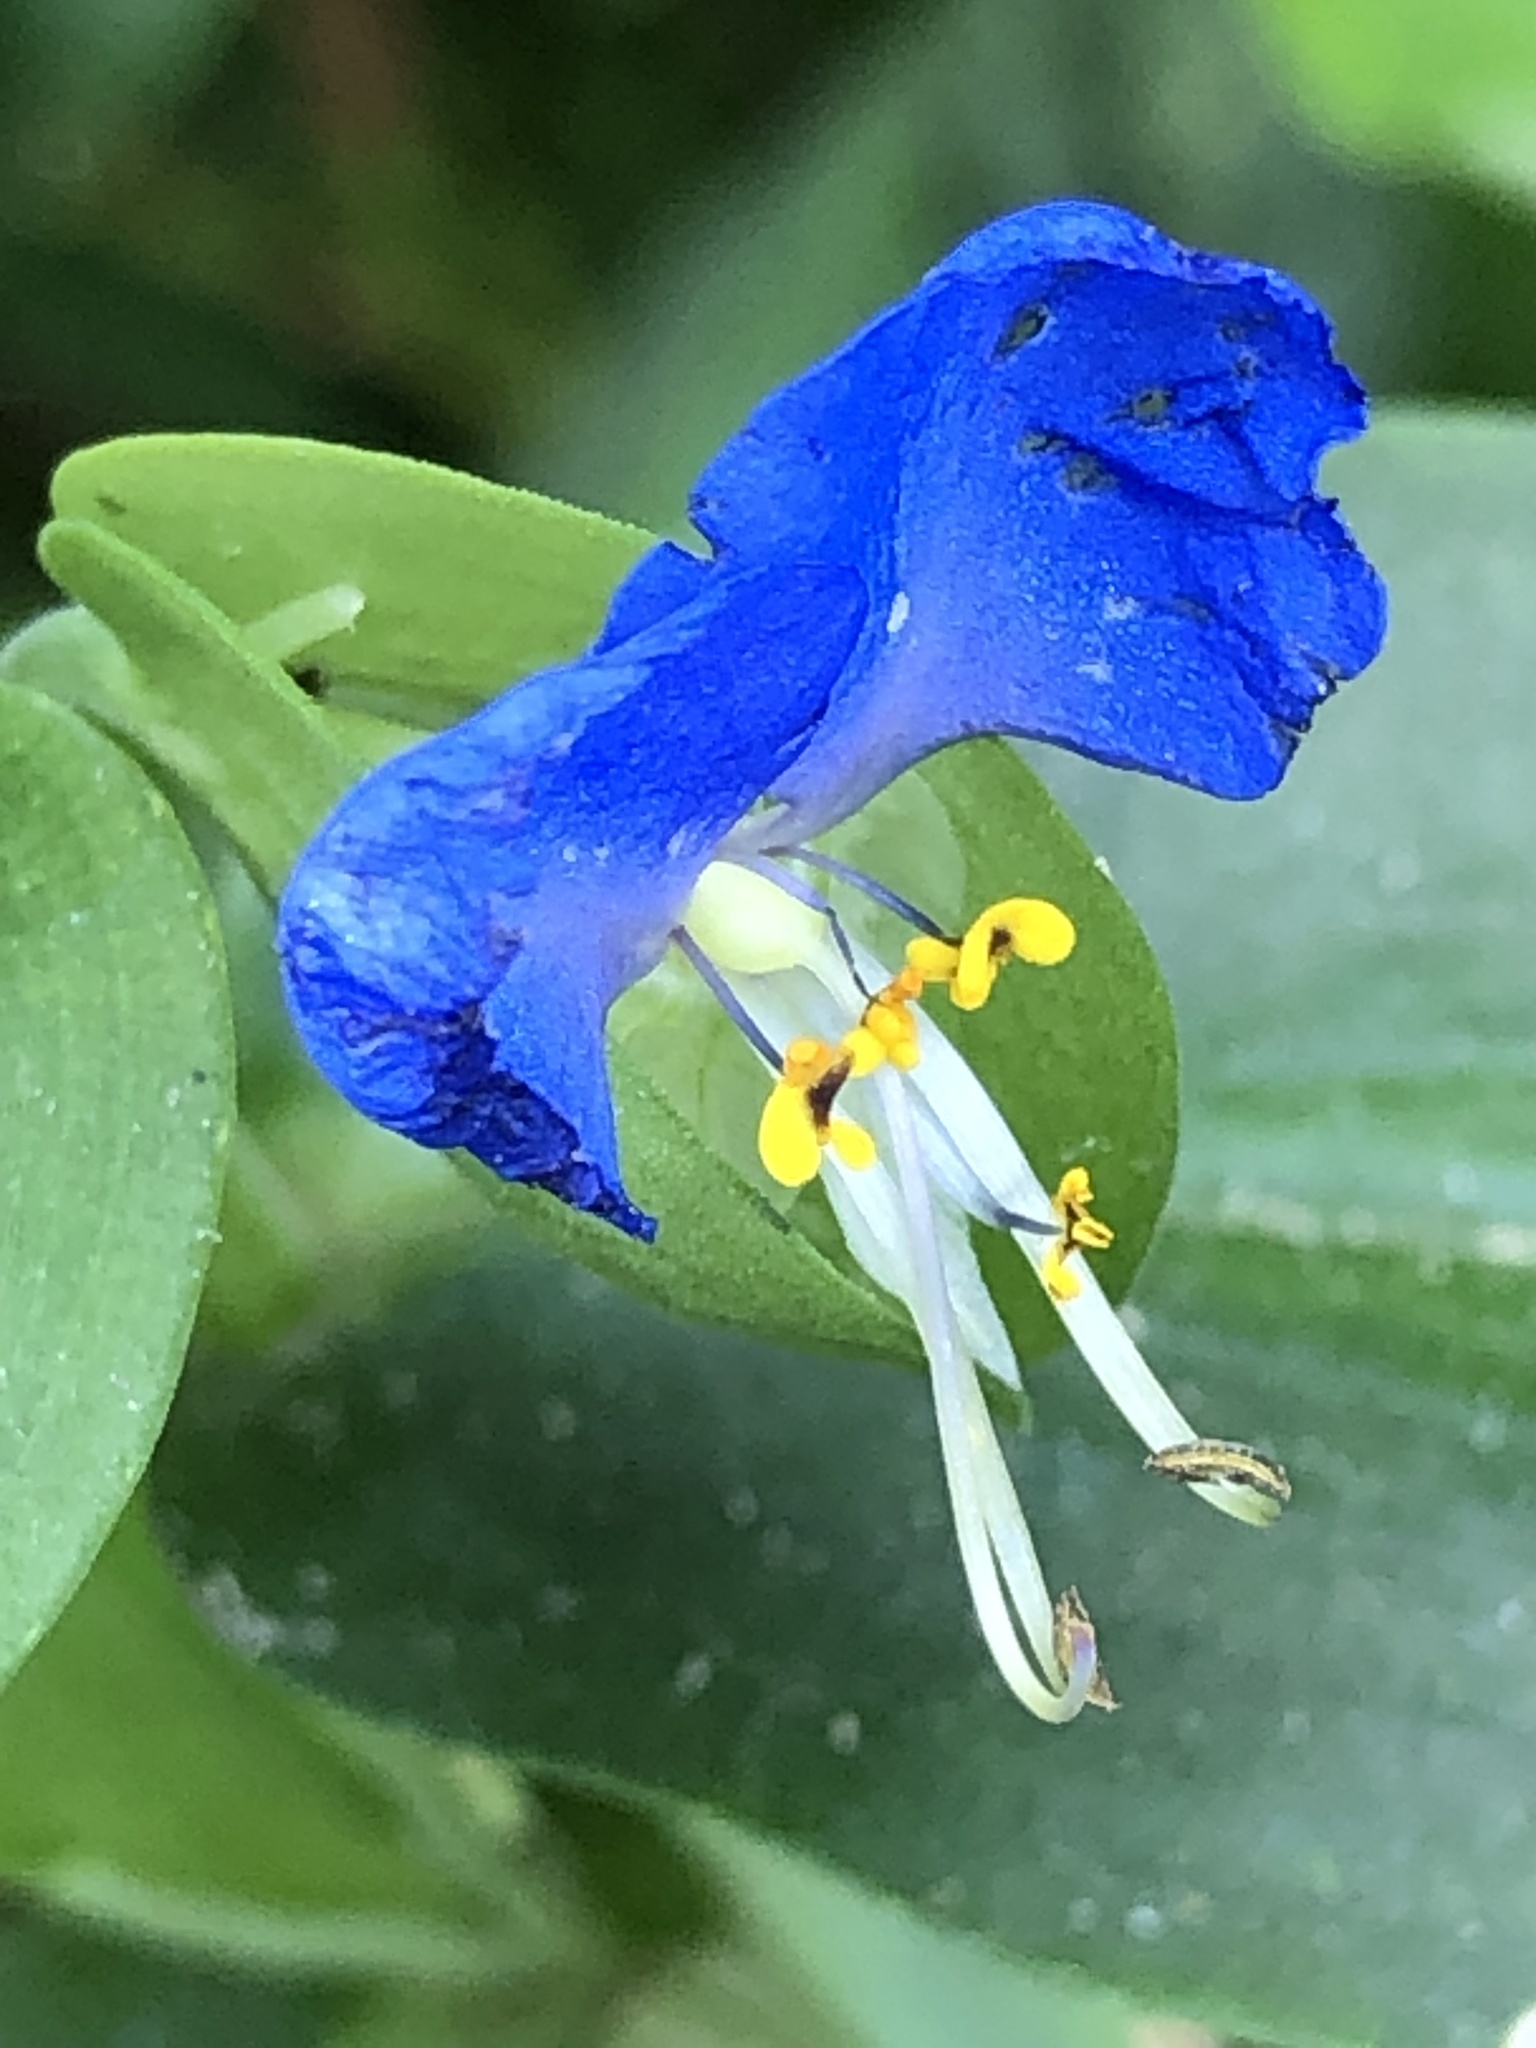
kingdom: Plantae
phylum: Tracheophyta
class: Liliopsida
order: Commelinales
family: Commelinaceae
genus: Commelina
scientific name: Commelina communis
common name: Asiatic dayflower
